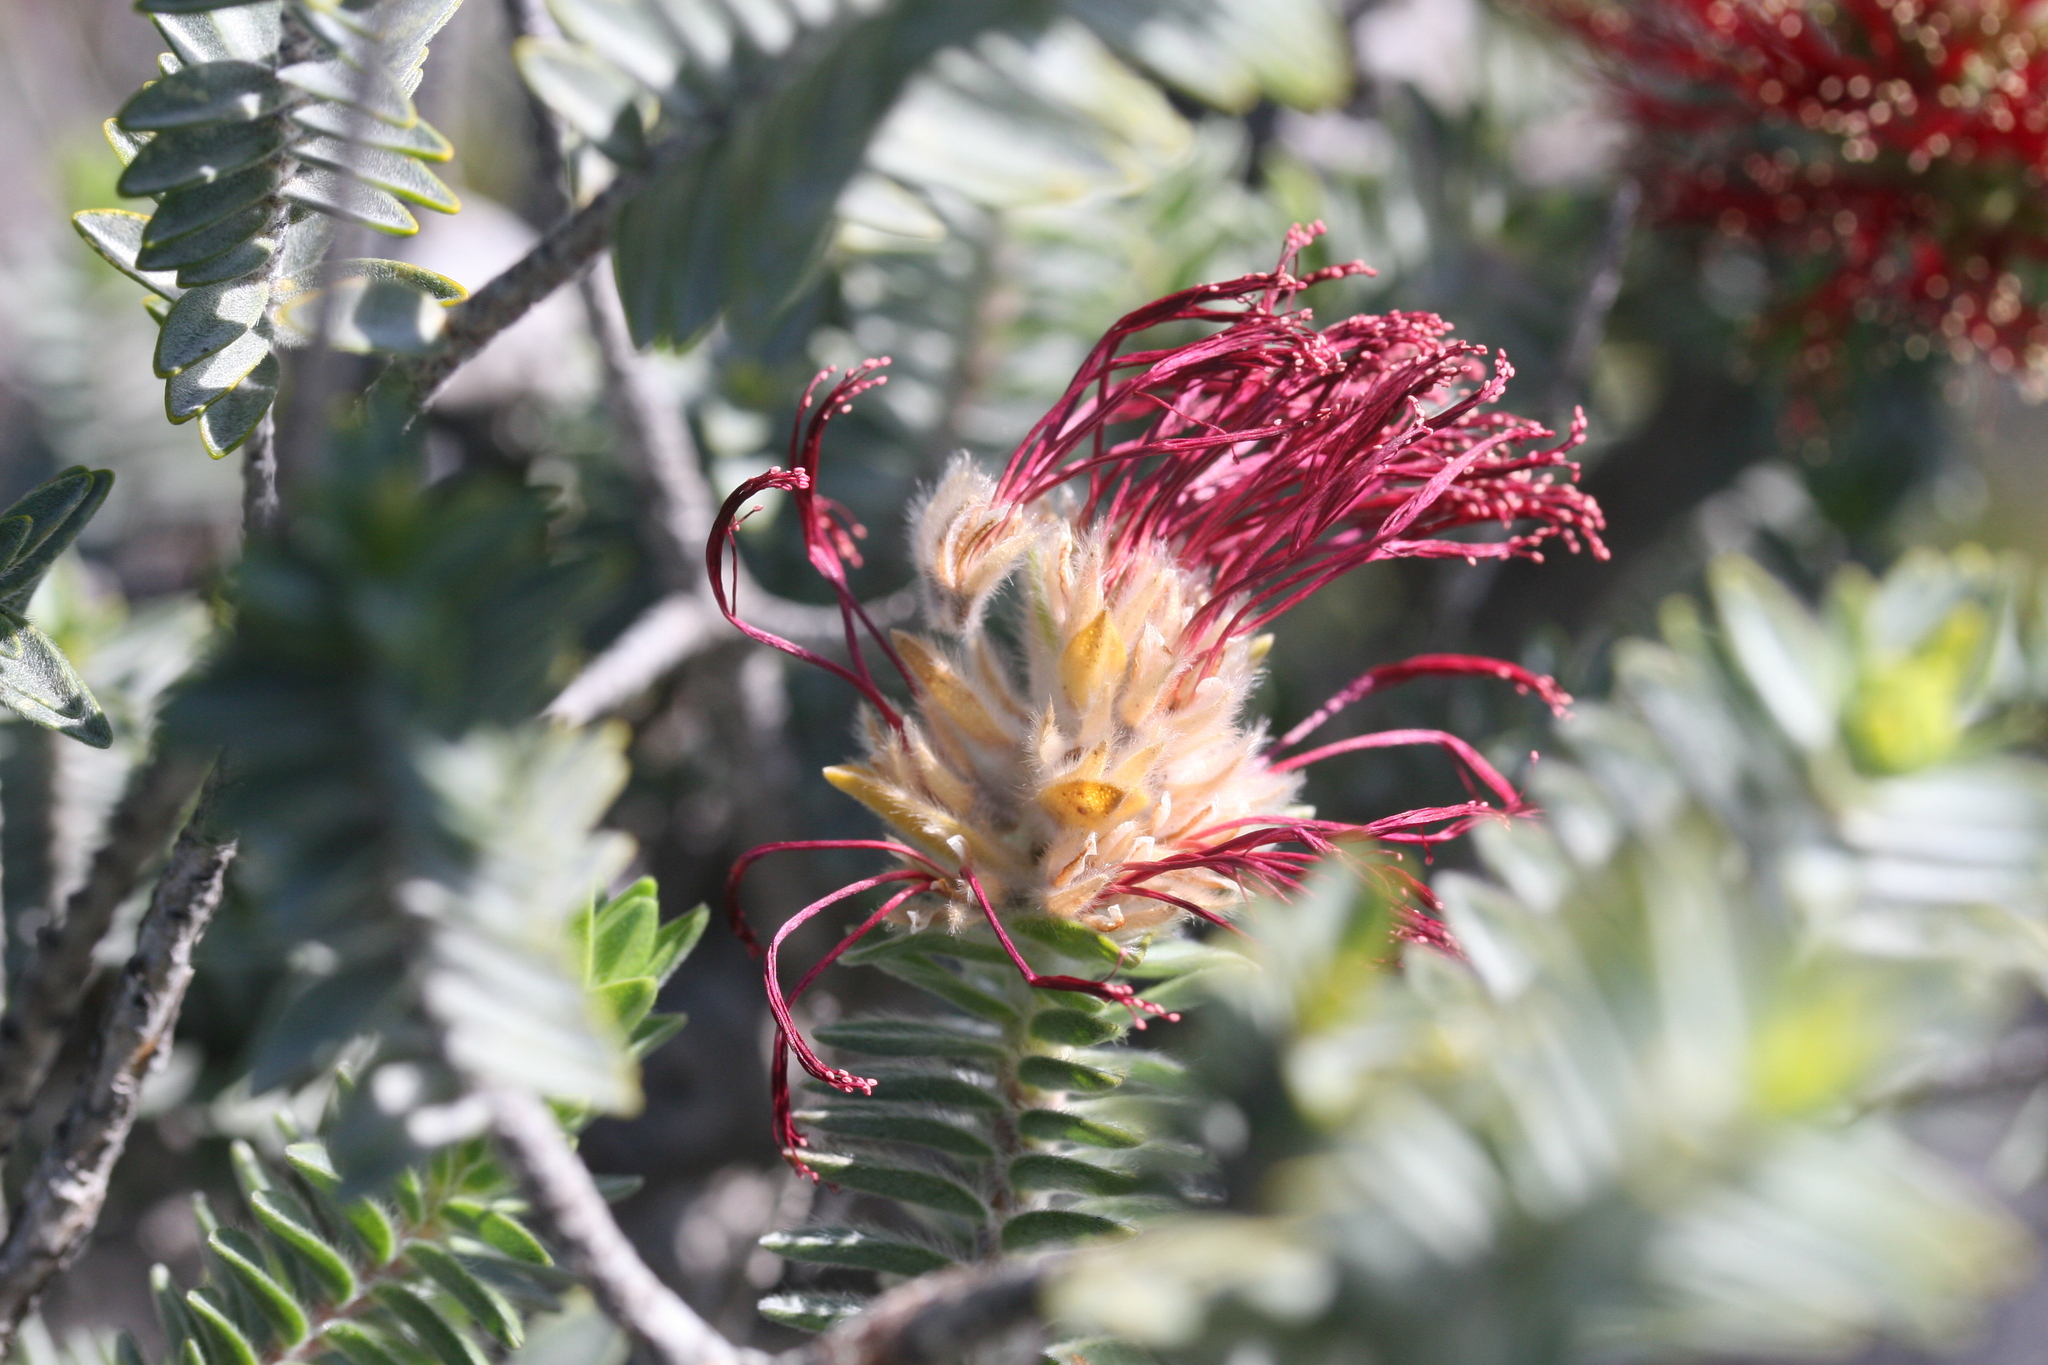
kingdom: Plantae
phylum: Tracheophyta
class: Magnoliopsida
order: Myrtales
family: Myrtaceae
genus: Melaleuca
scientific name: Melaleuca velutina
